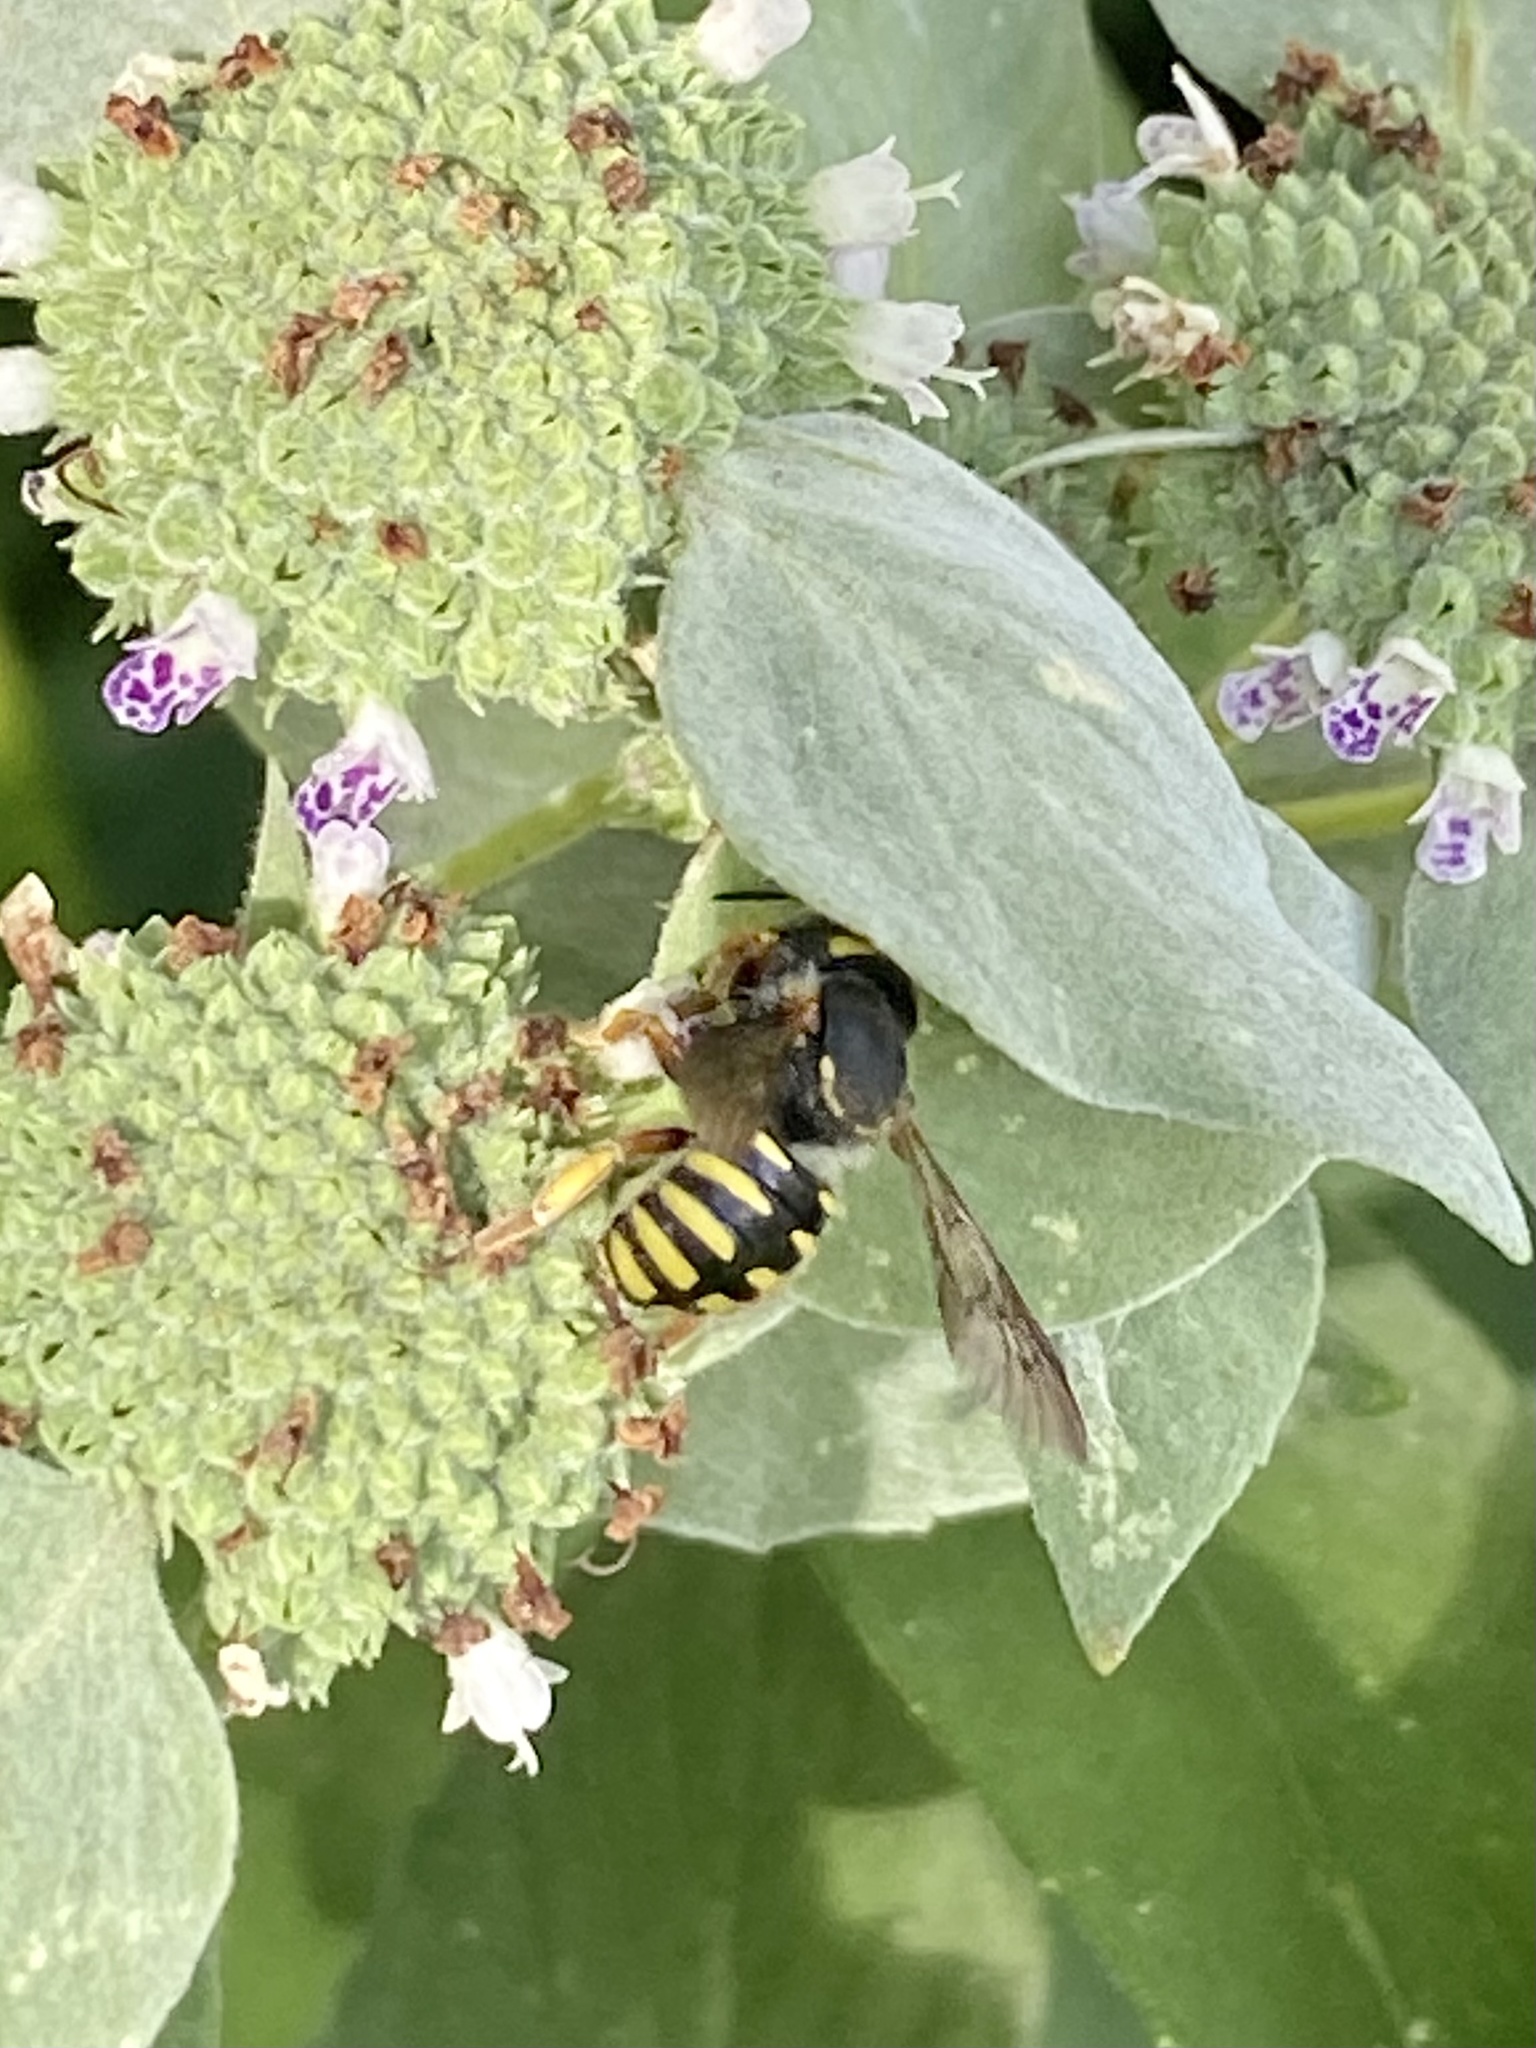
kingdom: Animalia
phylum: Arthropoda
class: Insecta
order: Hymenoptera
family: Megachilidae
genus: Anthidium
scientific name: Anthidium oblongatum
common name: Oblong wool carder bee
